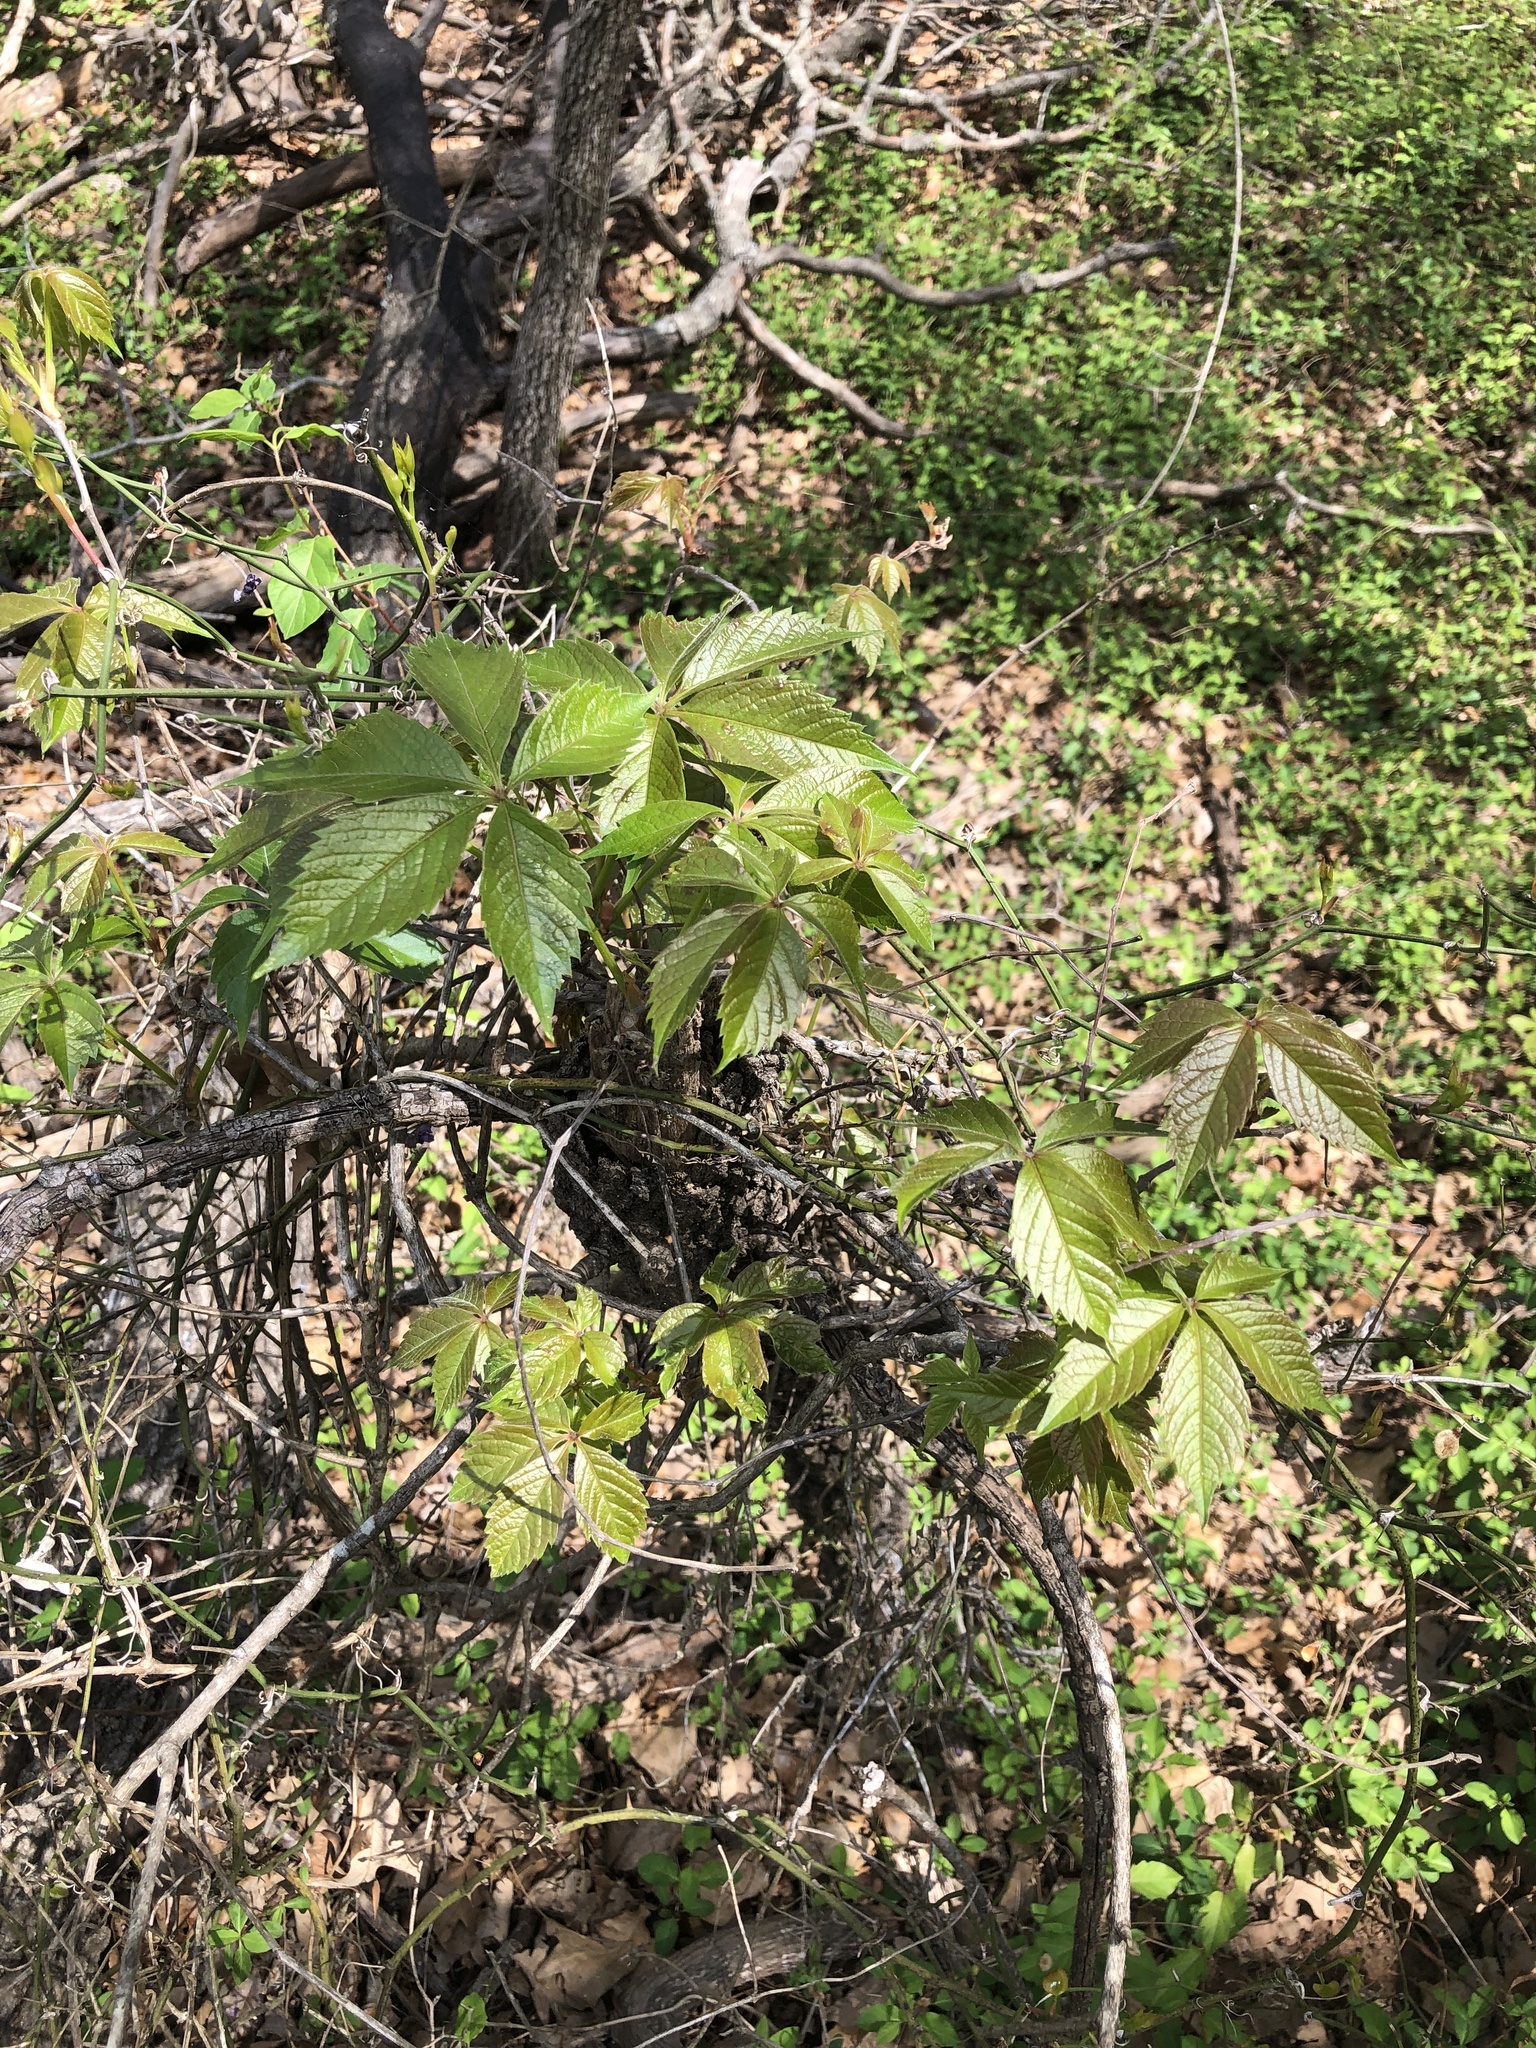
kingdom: Plantae
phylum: Tracheophyta
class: Magnoliopsida
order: Vitales
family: Vitaceae
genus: Parthenocissus
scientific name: Parthenocissus quinquefolia
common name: Virginia-creeper
